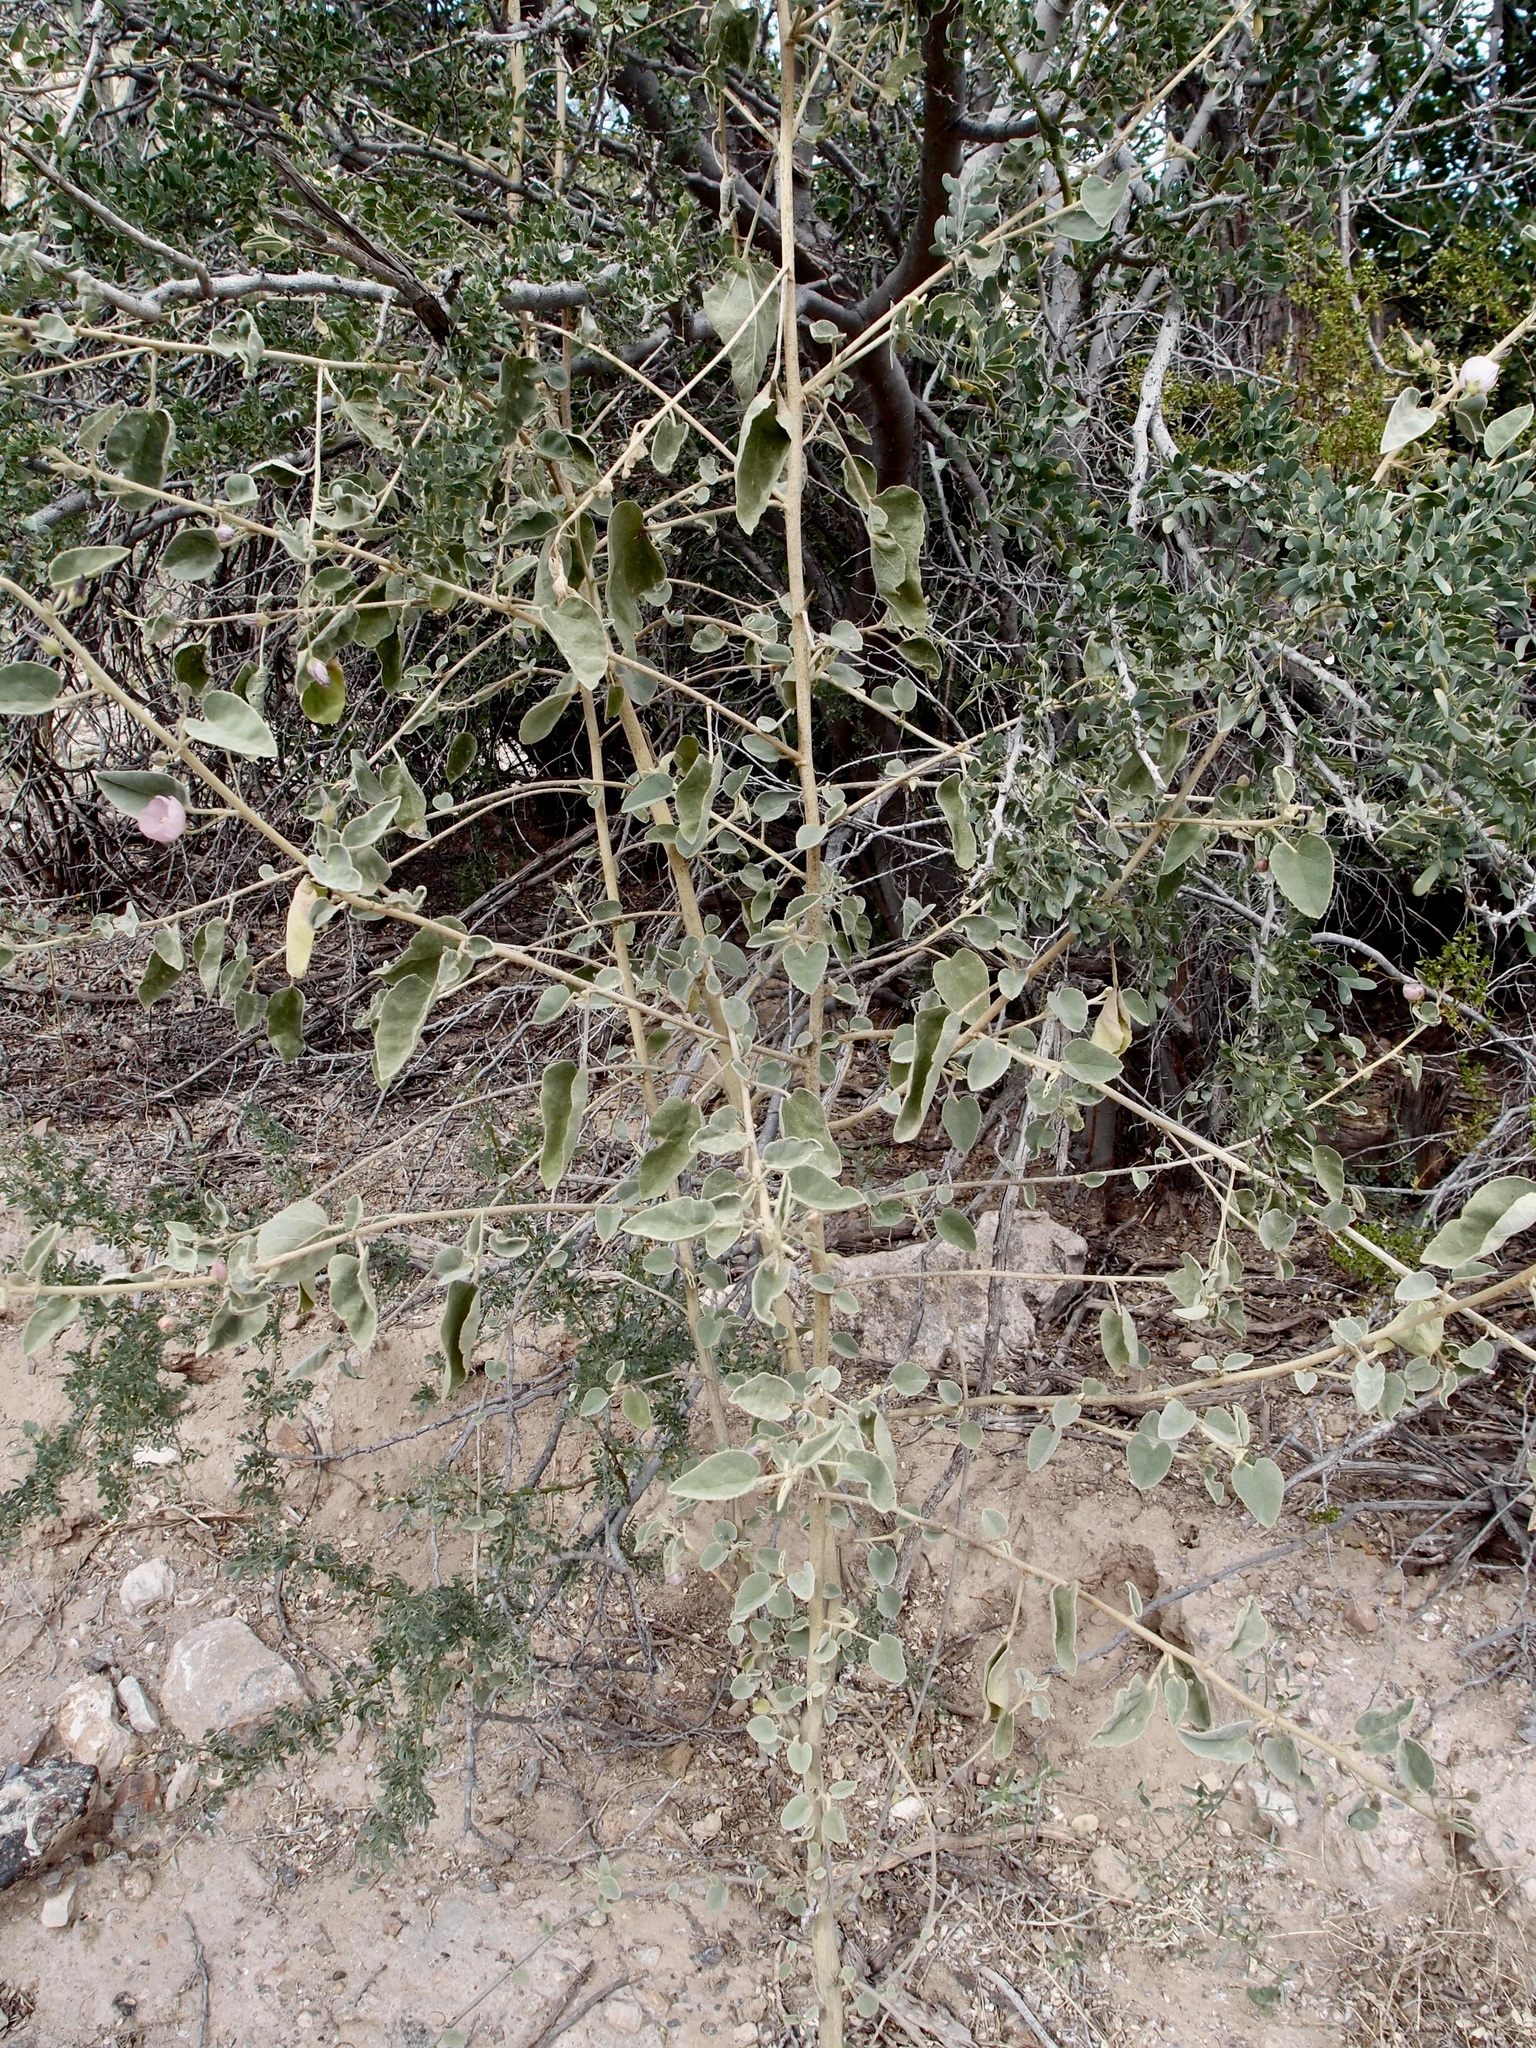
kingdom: Plantae
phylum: Tracheophyta
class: Magnoliopsida
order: Malvales
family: Malvaceae
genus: Horsfordia
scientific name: Horsfordia alata
